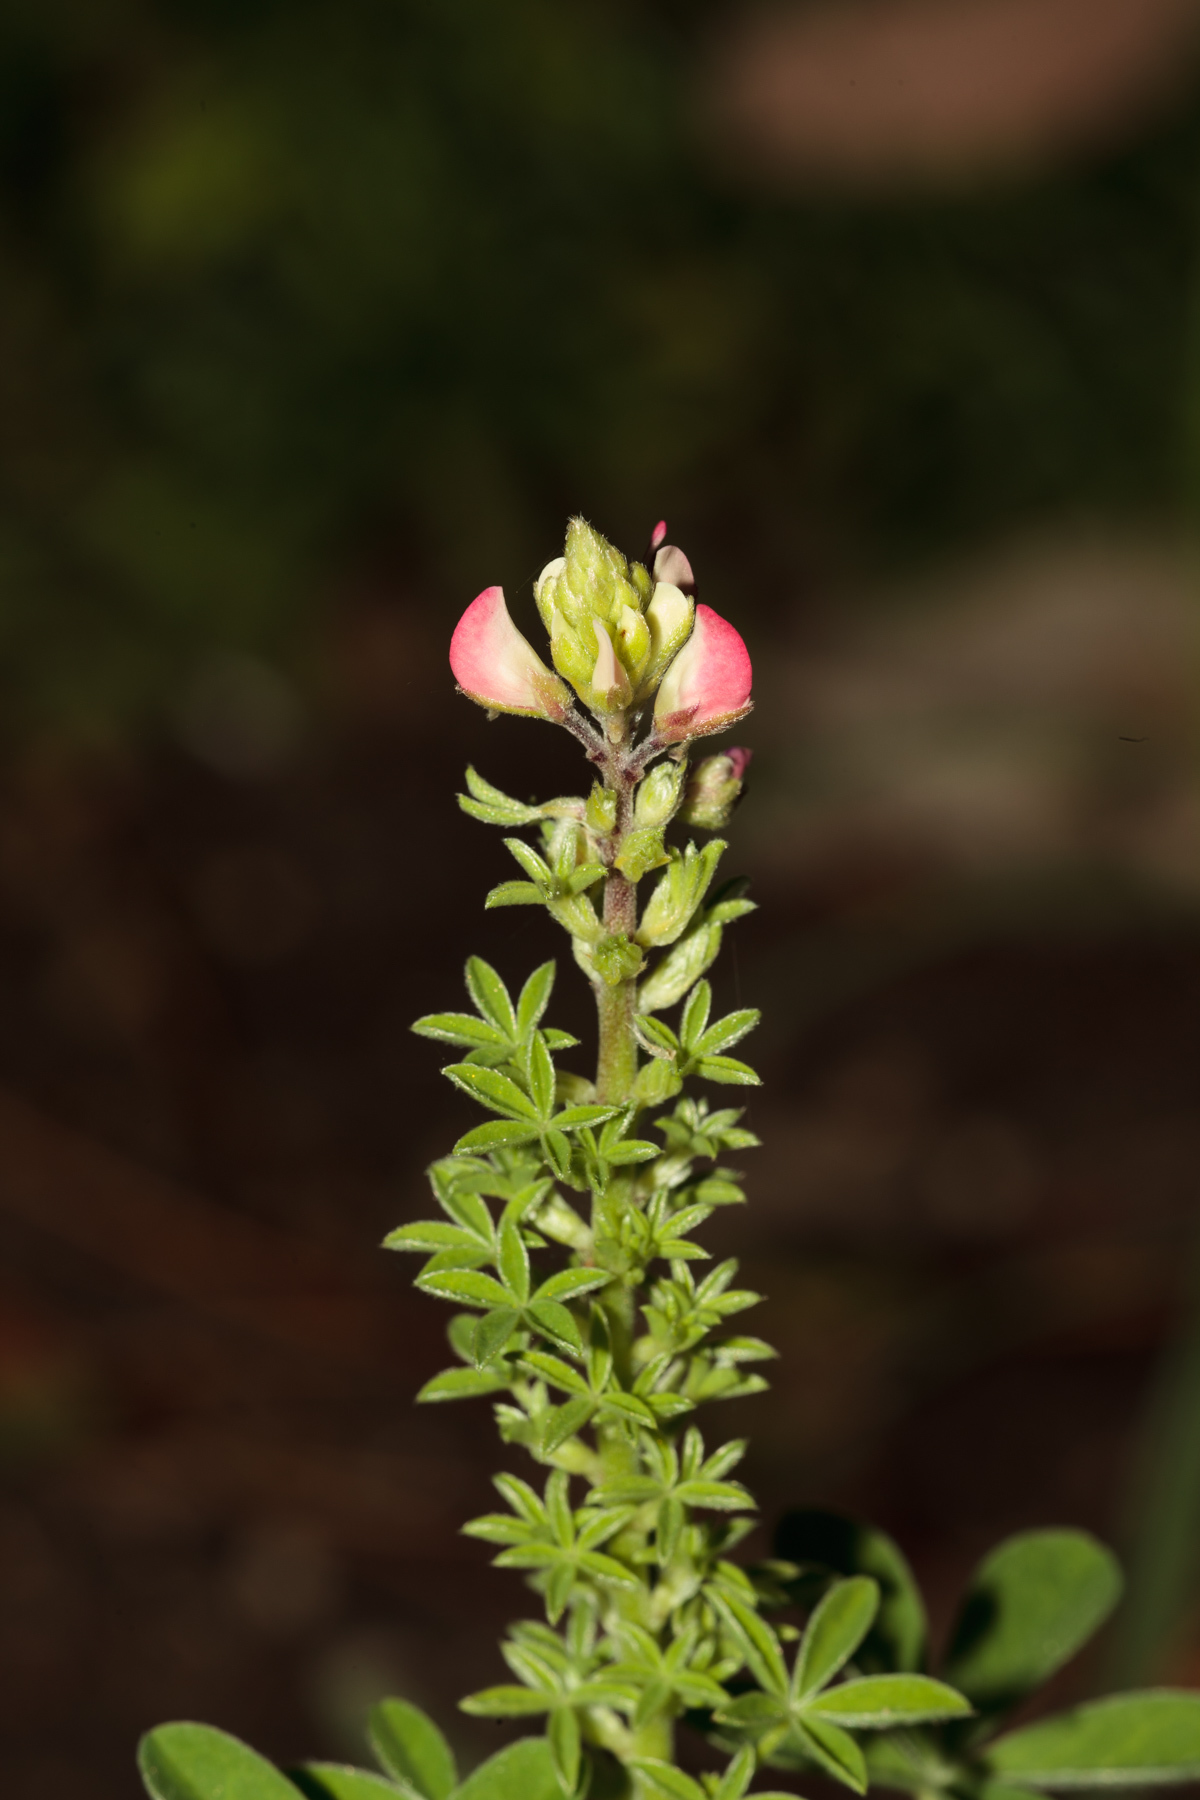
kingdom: Plantae
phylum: Tracheophyta
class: Magnoliopsida
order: Fabales
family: Fabaceae
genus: Lupinus
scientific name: Lupinus texensis
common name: Texas bluebonnet
